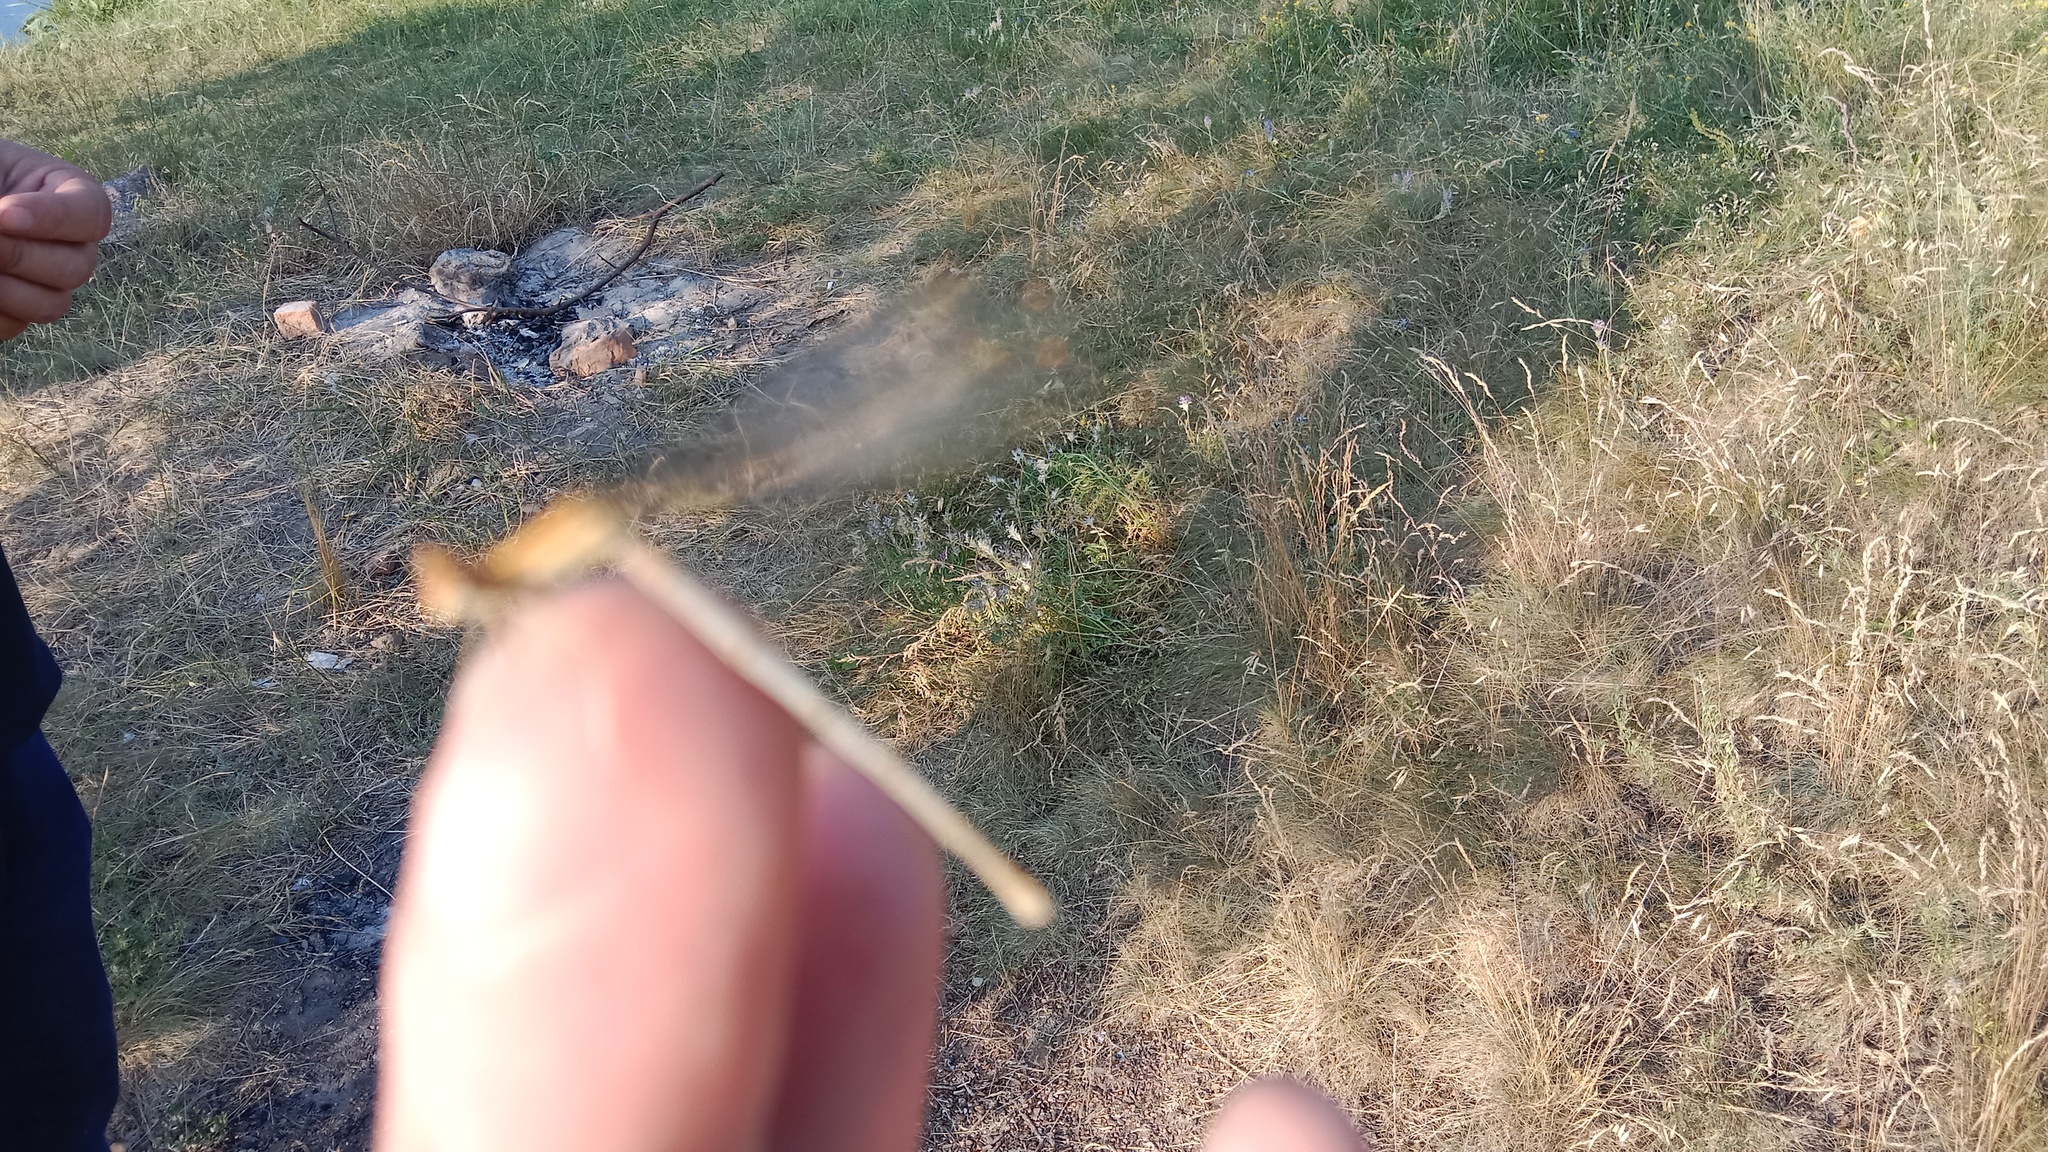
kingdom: Animalia
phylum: Arthropoda
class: Insecta
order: Odonata
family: Platycnemididae
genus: Platycnemis
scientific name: Platycnemis pennipes
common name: White-legged damselfly
